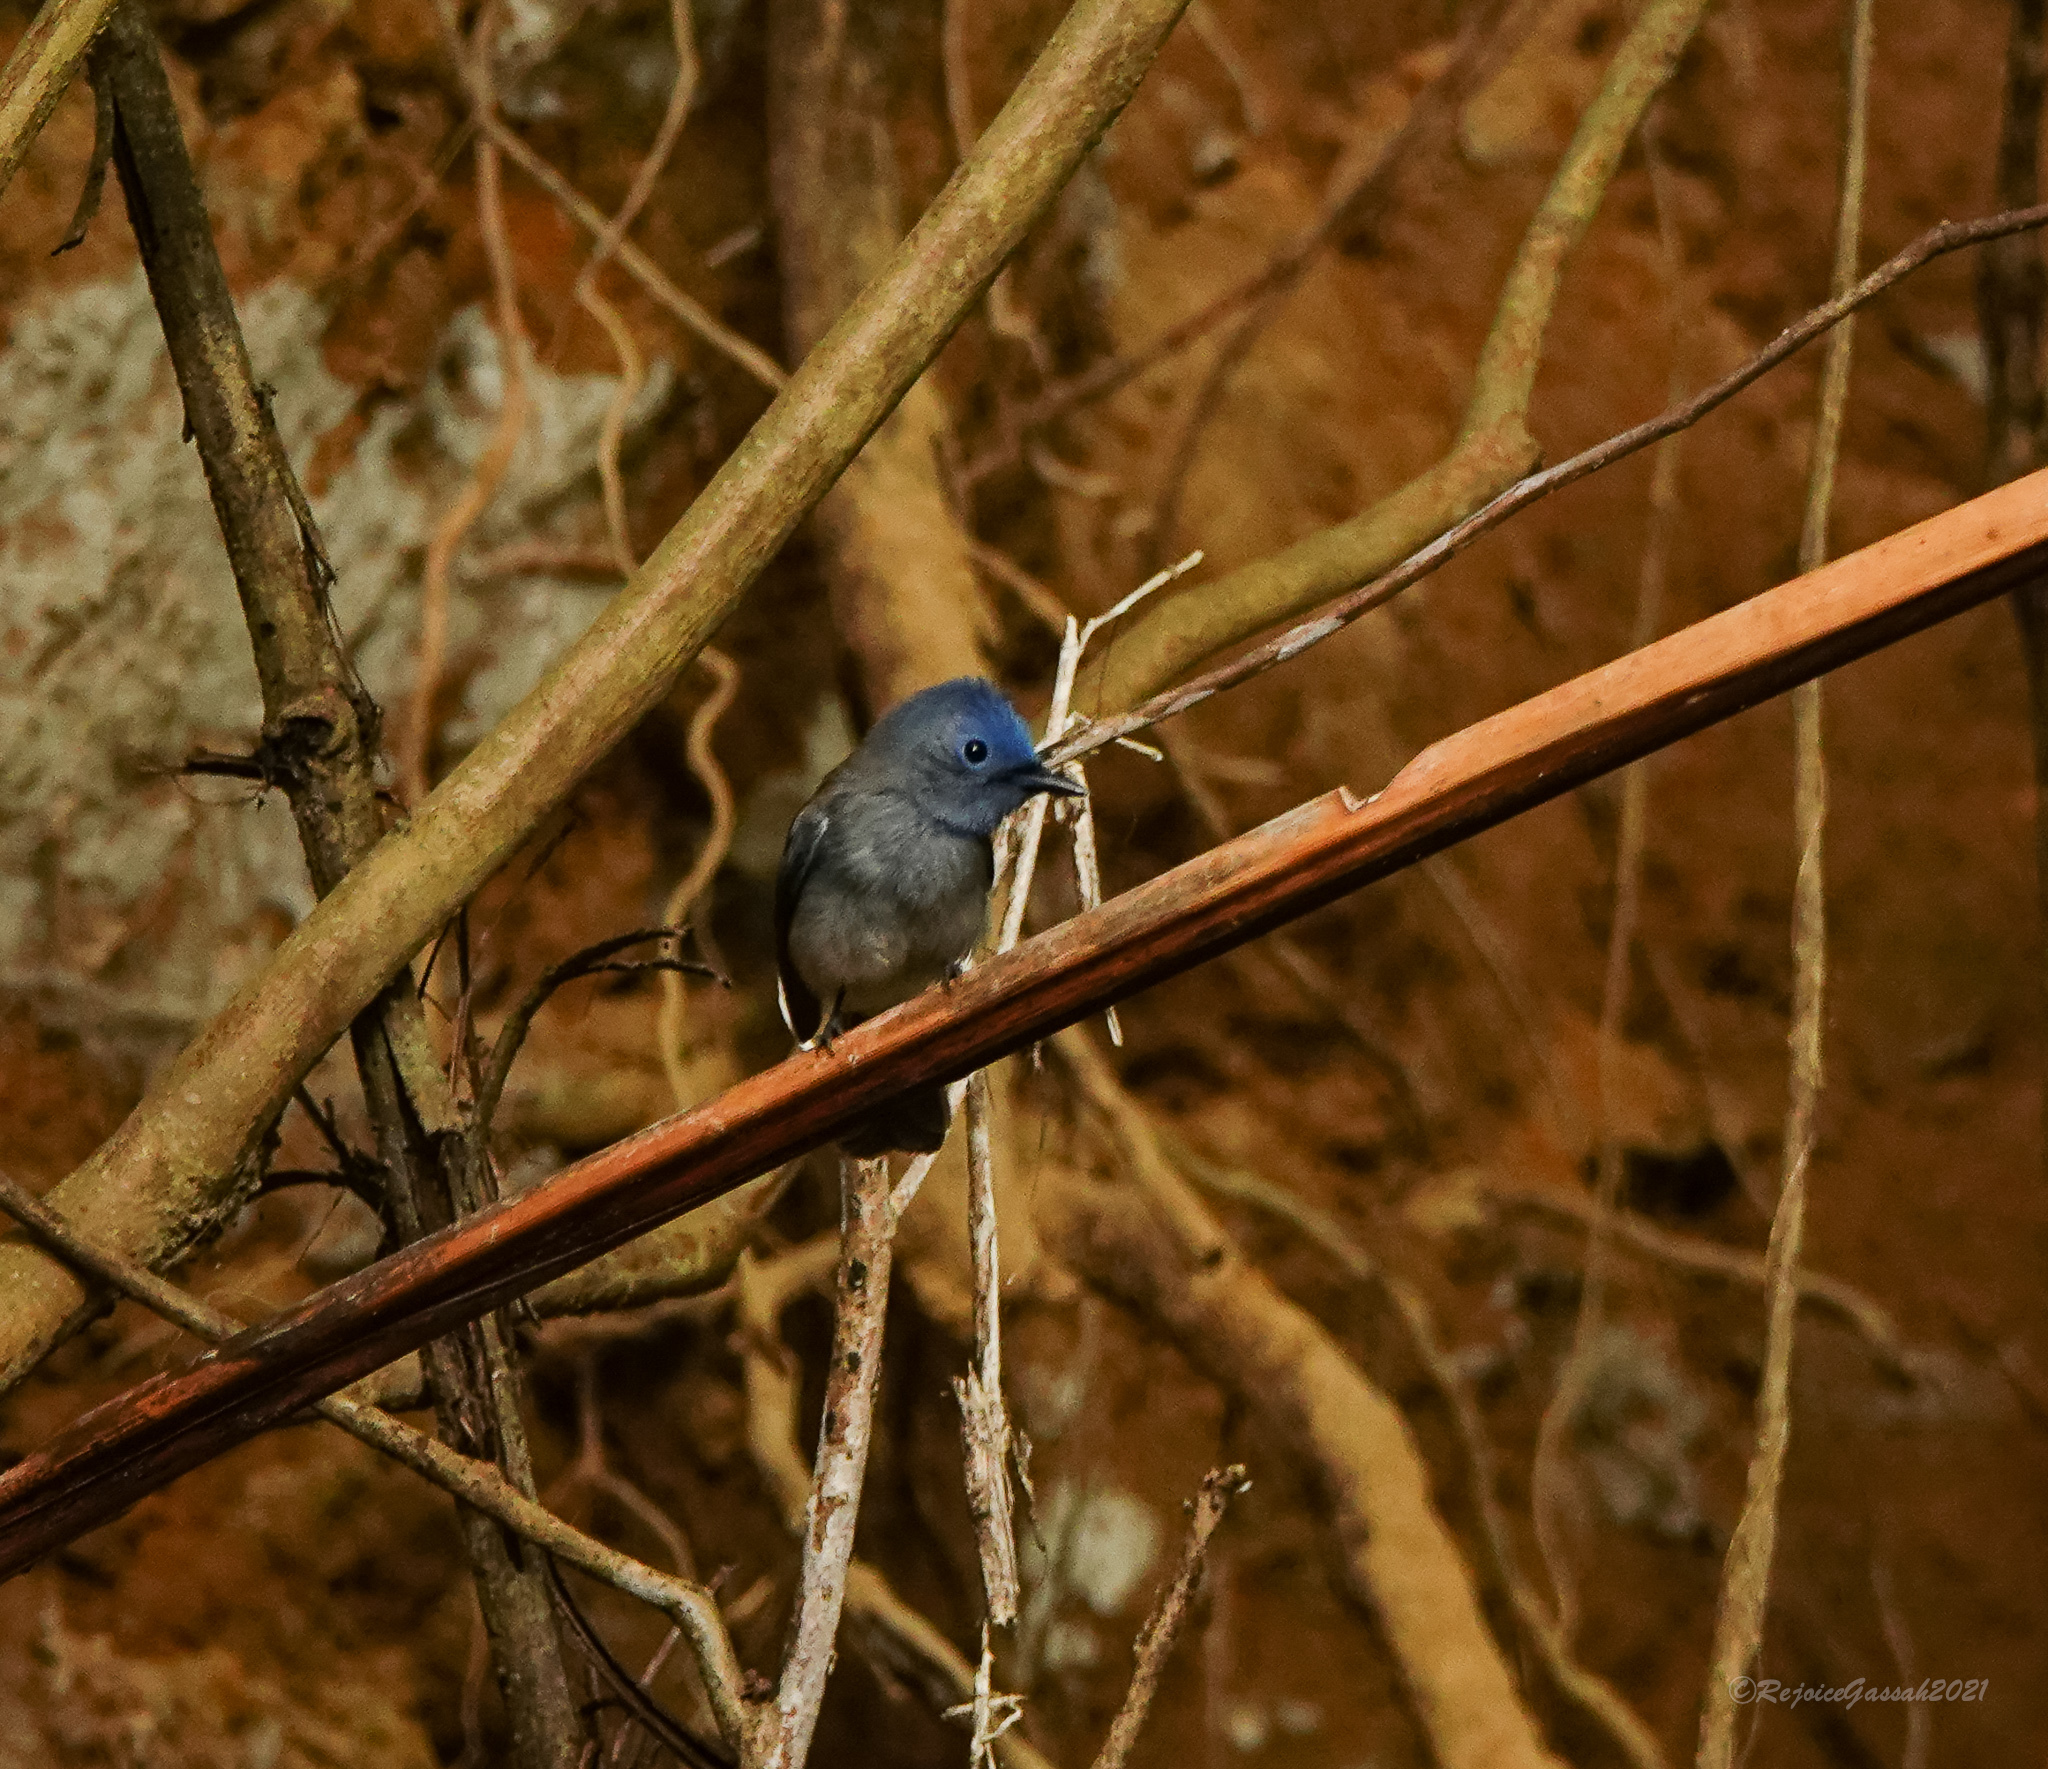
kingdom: Animalia
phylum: Chordata
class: Aves
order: Passeriformes
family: Monarchidae
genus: Hypothymis
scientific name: Hypothymis azurea
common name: Black-naped monarch
